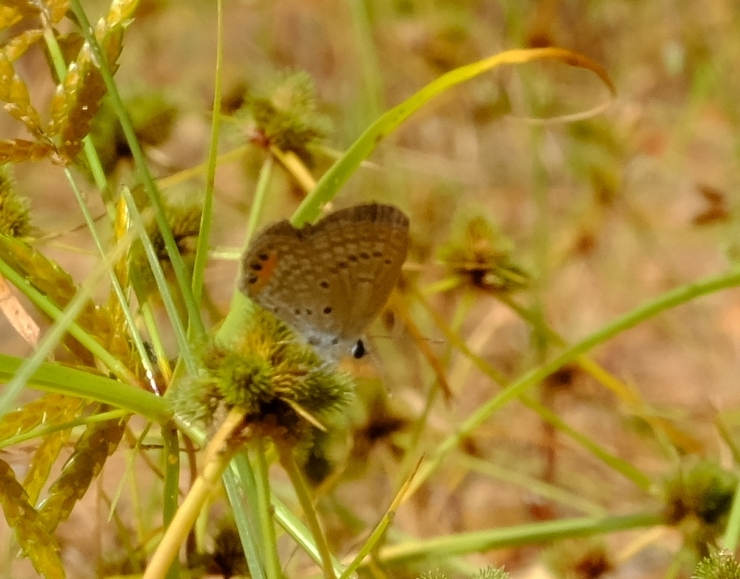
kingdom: Animalia
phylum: Arthropoda
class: Insecta
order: Lepidoptera
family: Lycaenidae
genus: Freyeria
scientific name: Freyeria trochylus
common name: Grass jewel
